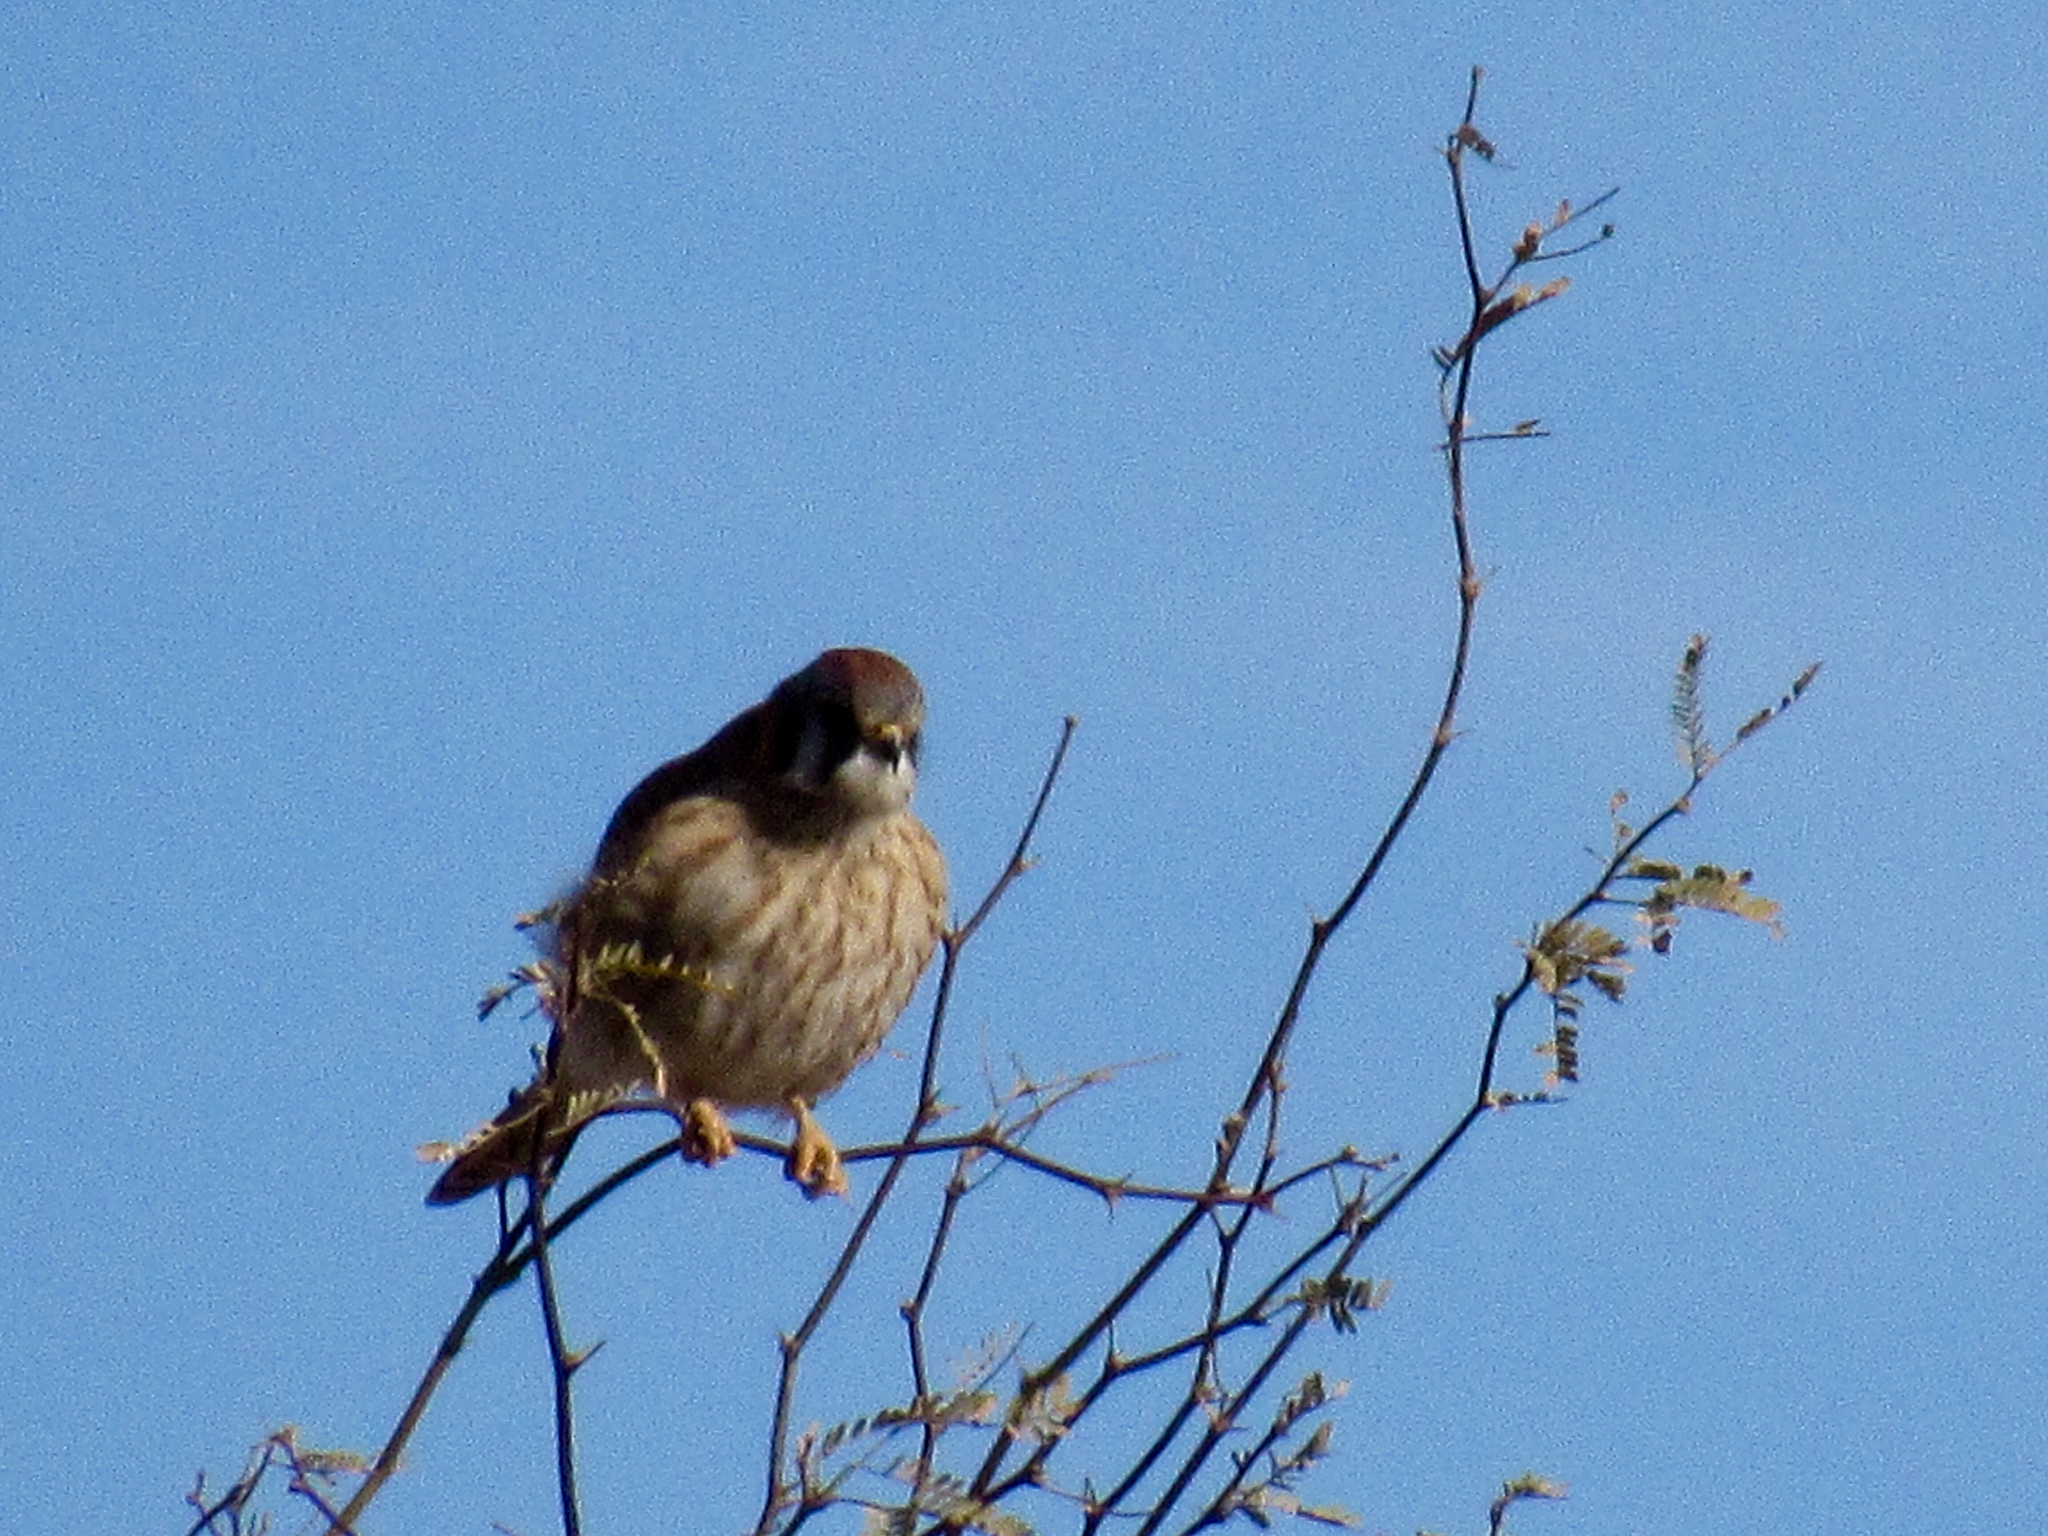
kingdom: Animalia
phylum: Chordata
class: Aves
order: Falconiformes
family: Falconidae
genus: Falco
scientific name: Falco sparverius
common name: American kestrel
